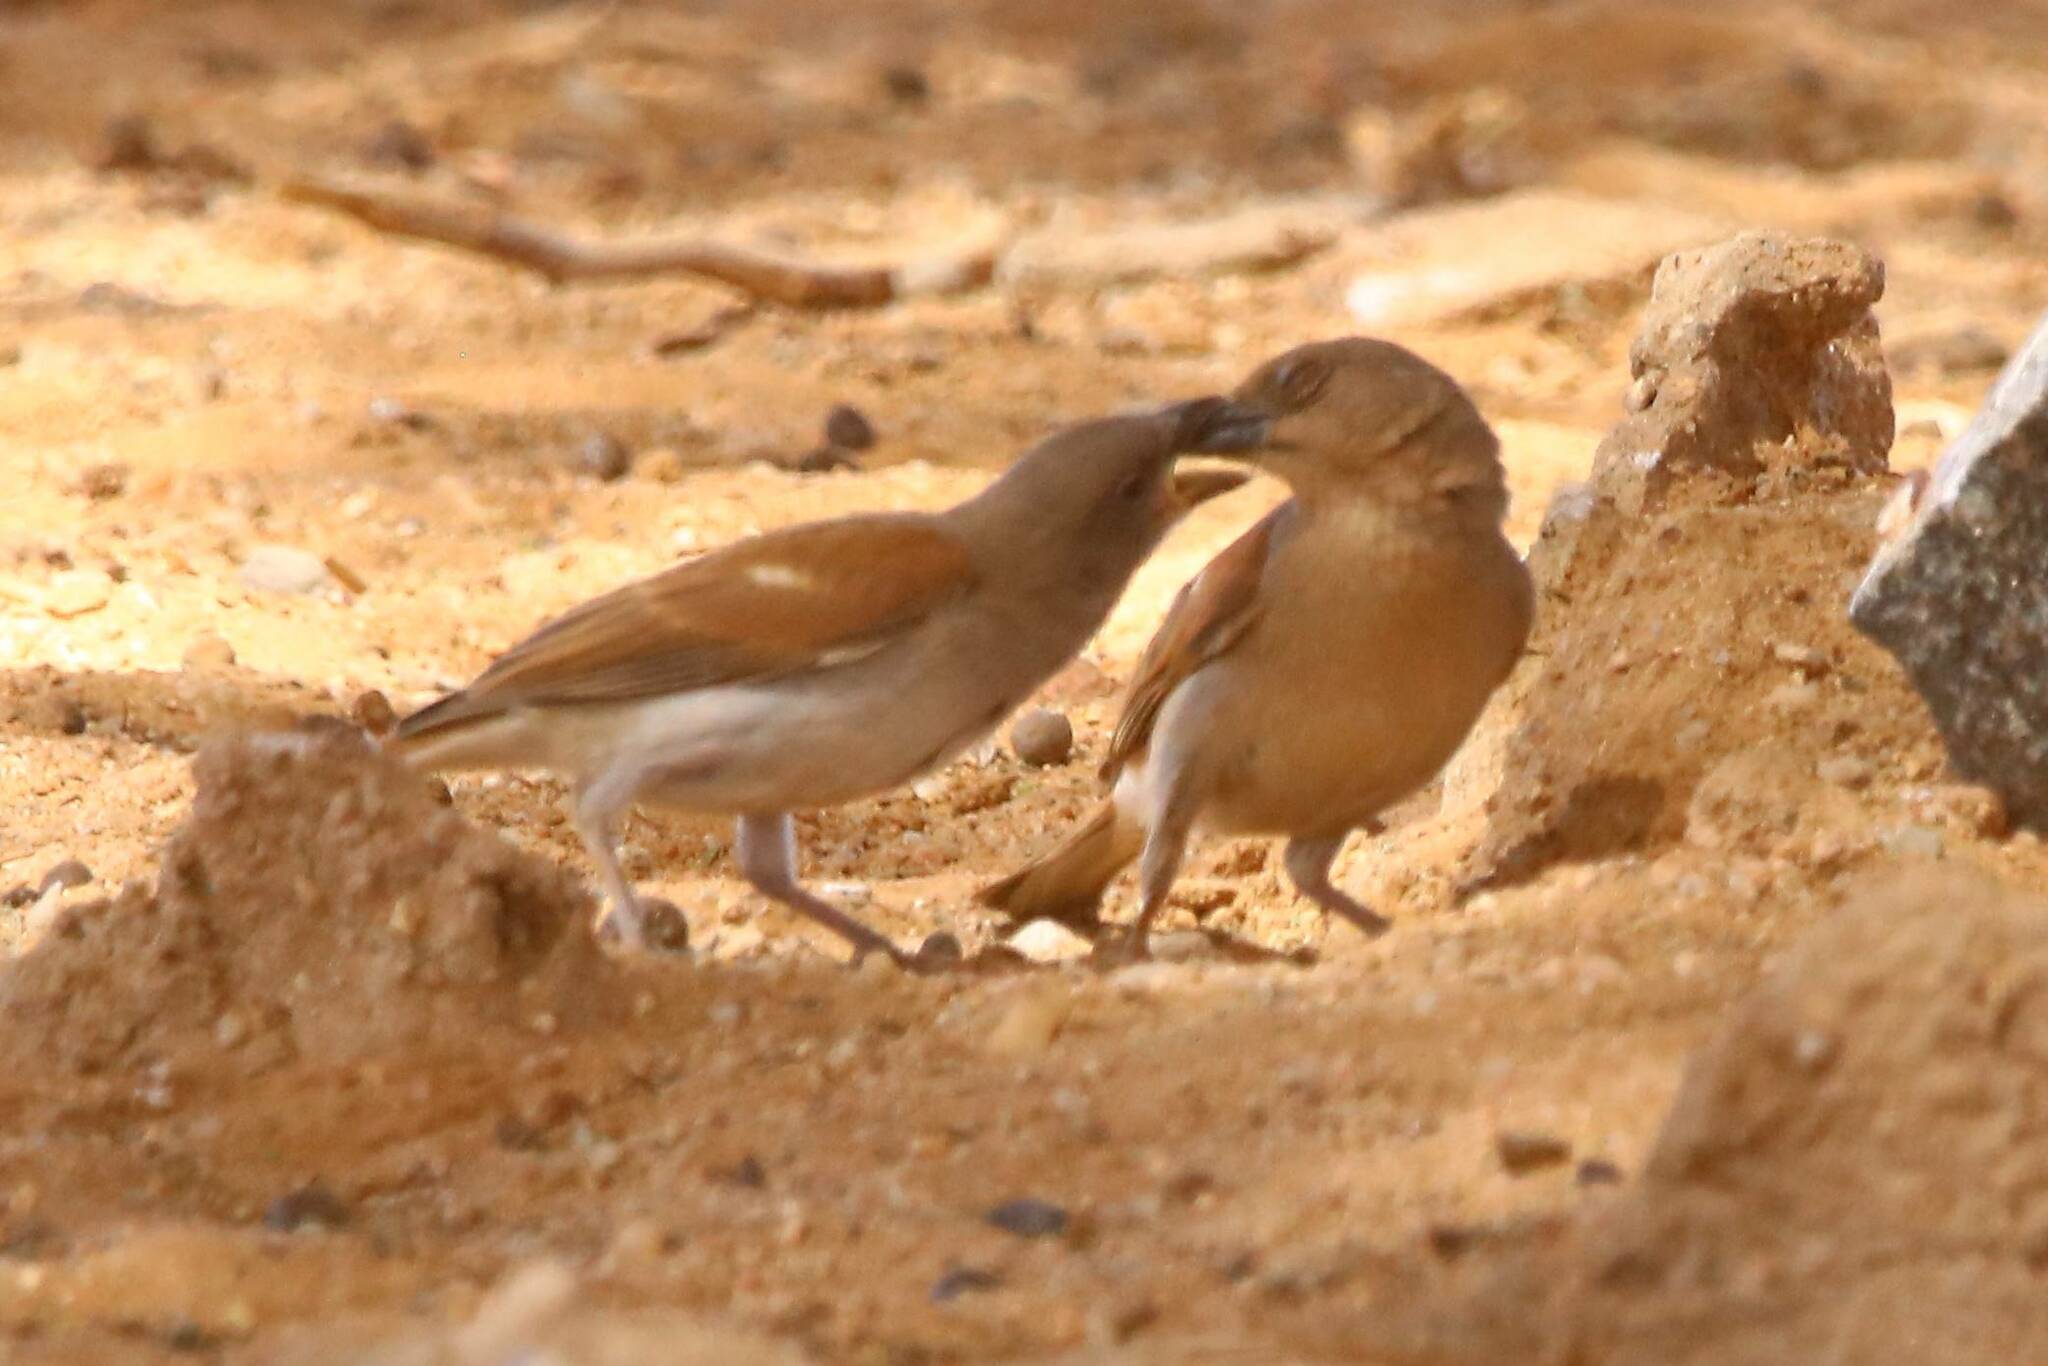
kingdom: Animalia
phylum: Chordata
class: Aves
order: Passeriformes
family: Passeridae
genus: Passer
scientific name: Passer griseus
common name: Northern grey-headed sparrow
